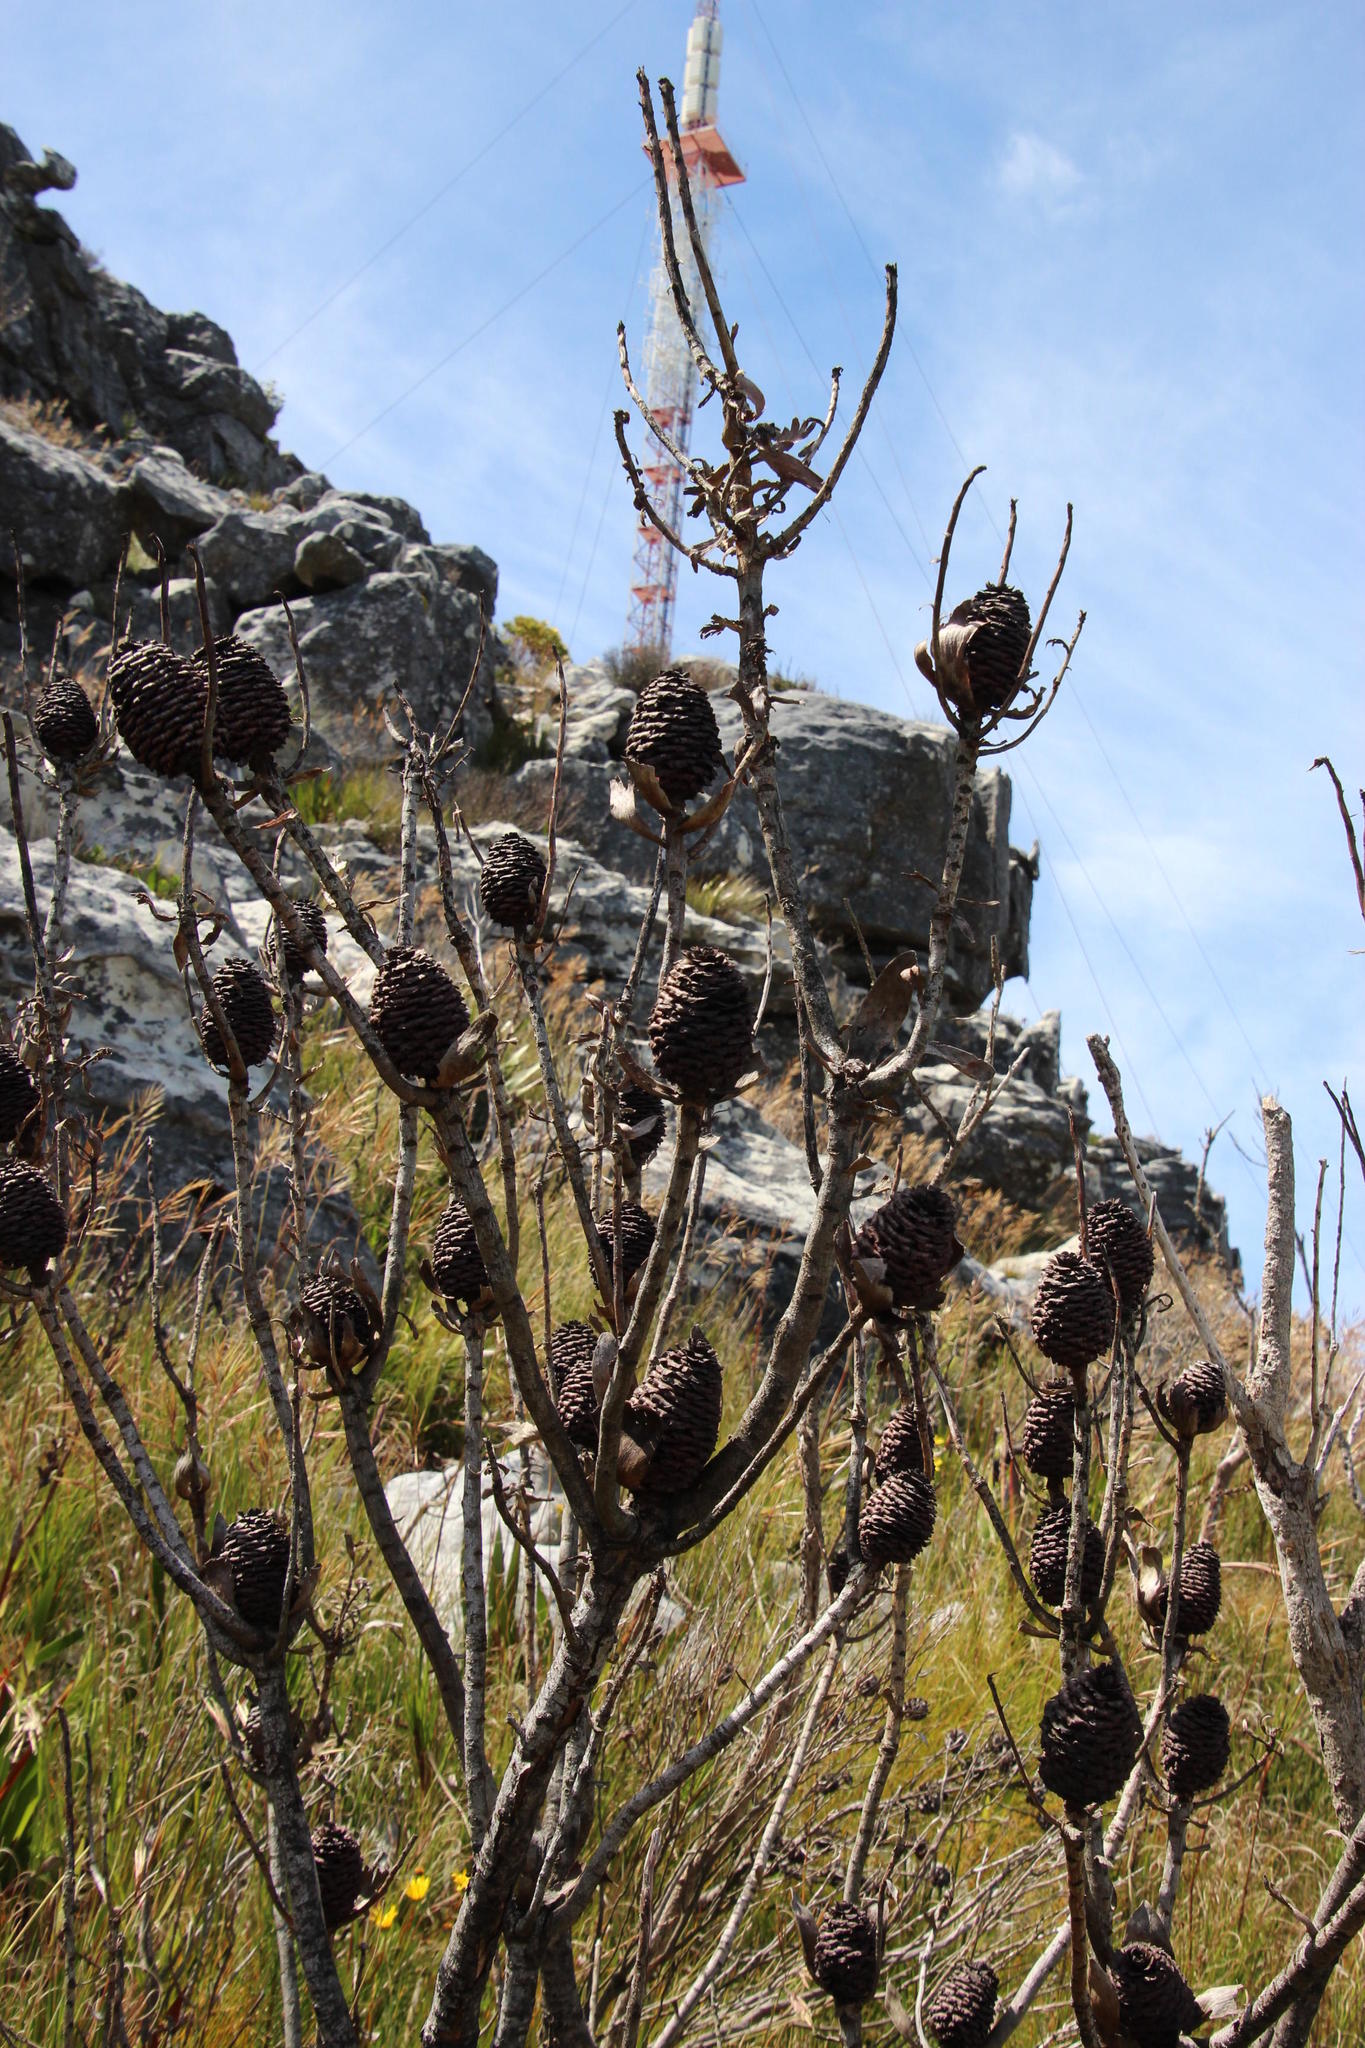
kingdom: Plantae
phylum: Tracheophyta
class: Magnoliopsida
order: Proteales
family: Proteaceae
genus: Leucadendron
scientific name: Leucadendron strobilinum
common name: Mountain rose
